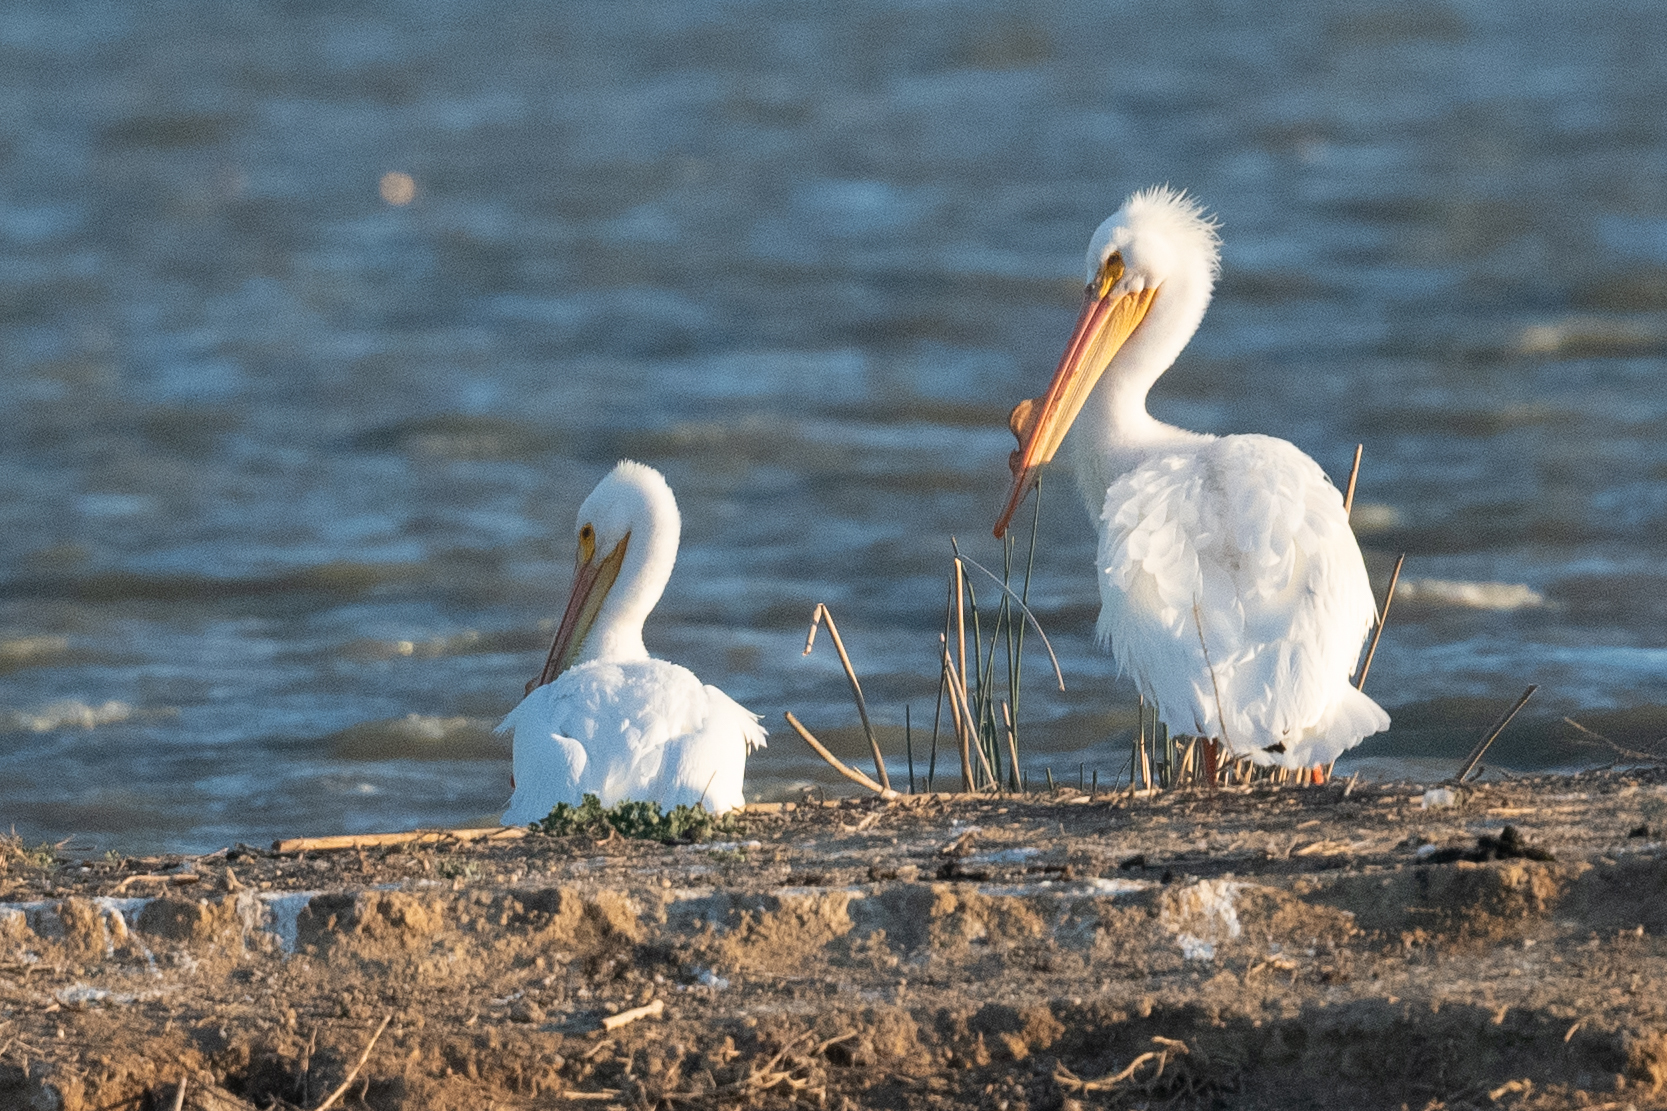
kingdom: Animalia
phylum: Chordata
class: Aves
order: Pelecaniformes
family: Pelecanidae
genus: Pelecanus
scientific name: Pelecanus erythrorhynchos
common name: American white pelican
